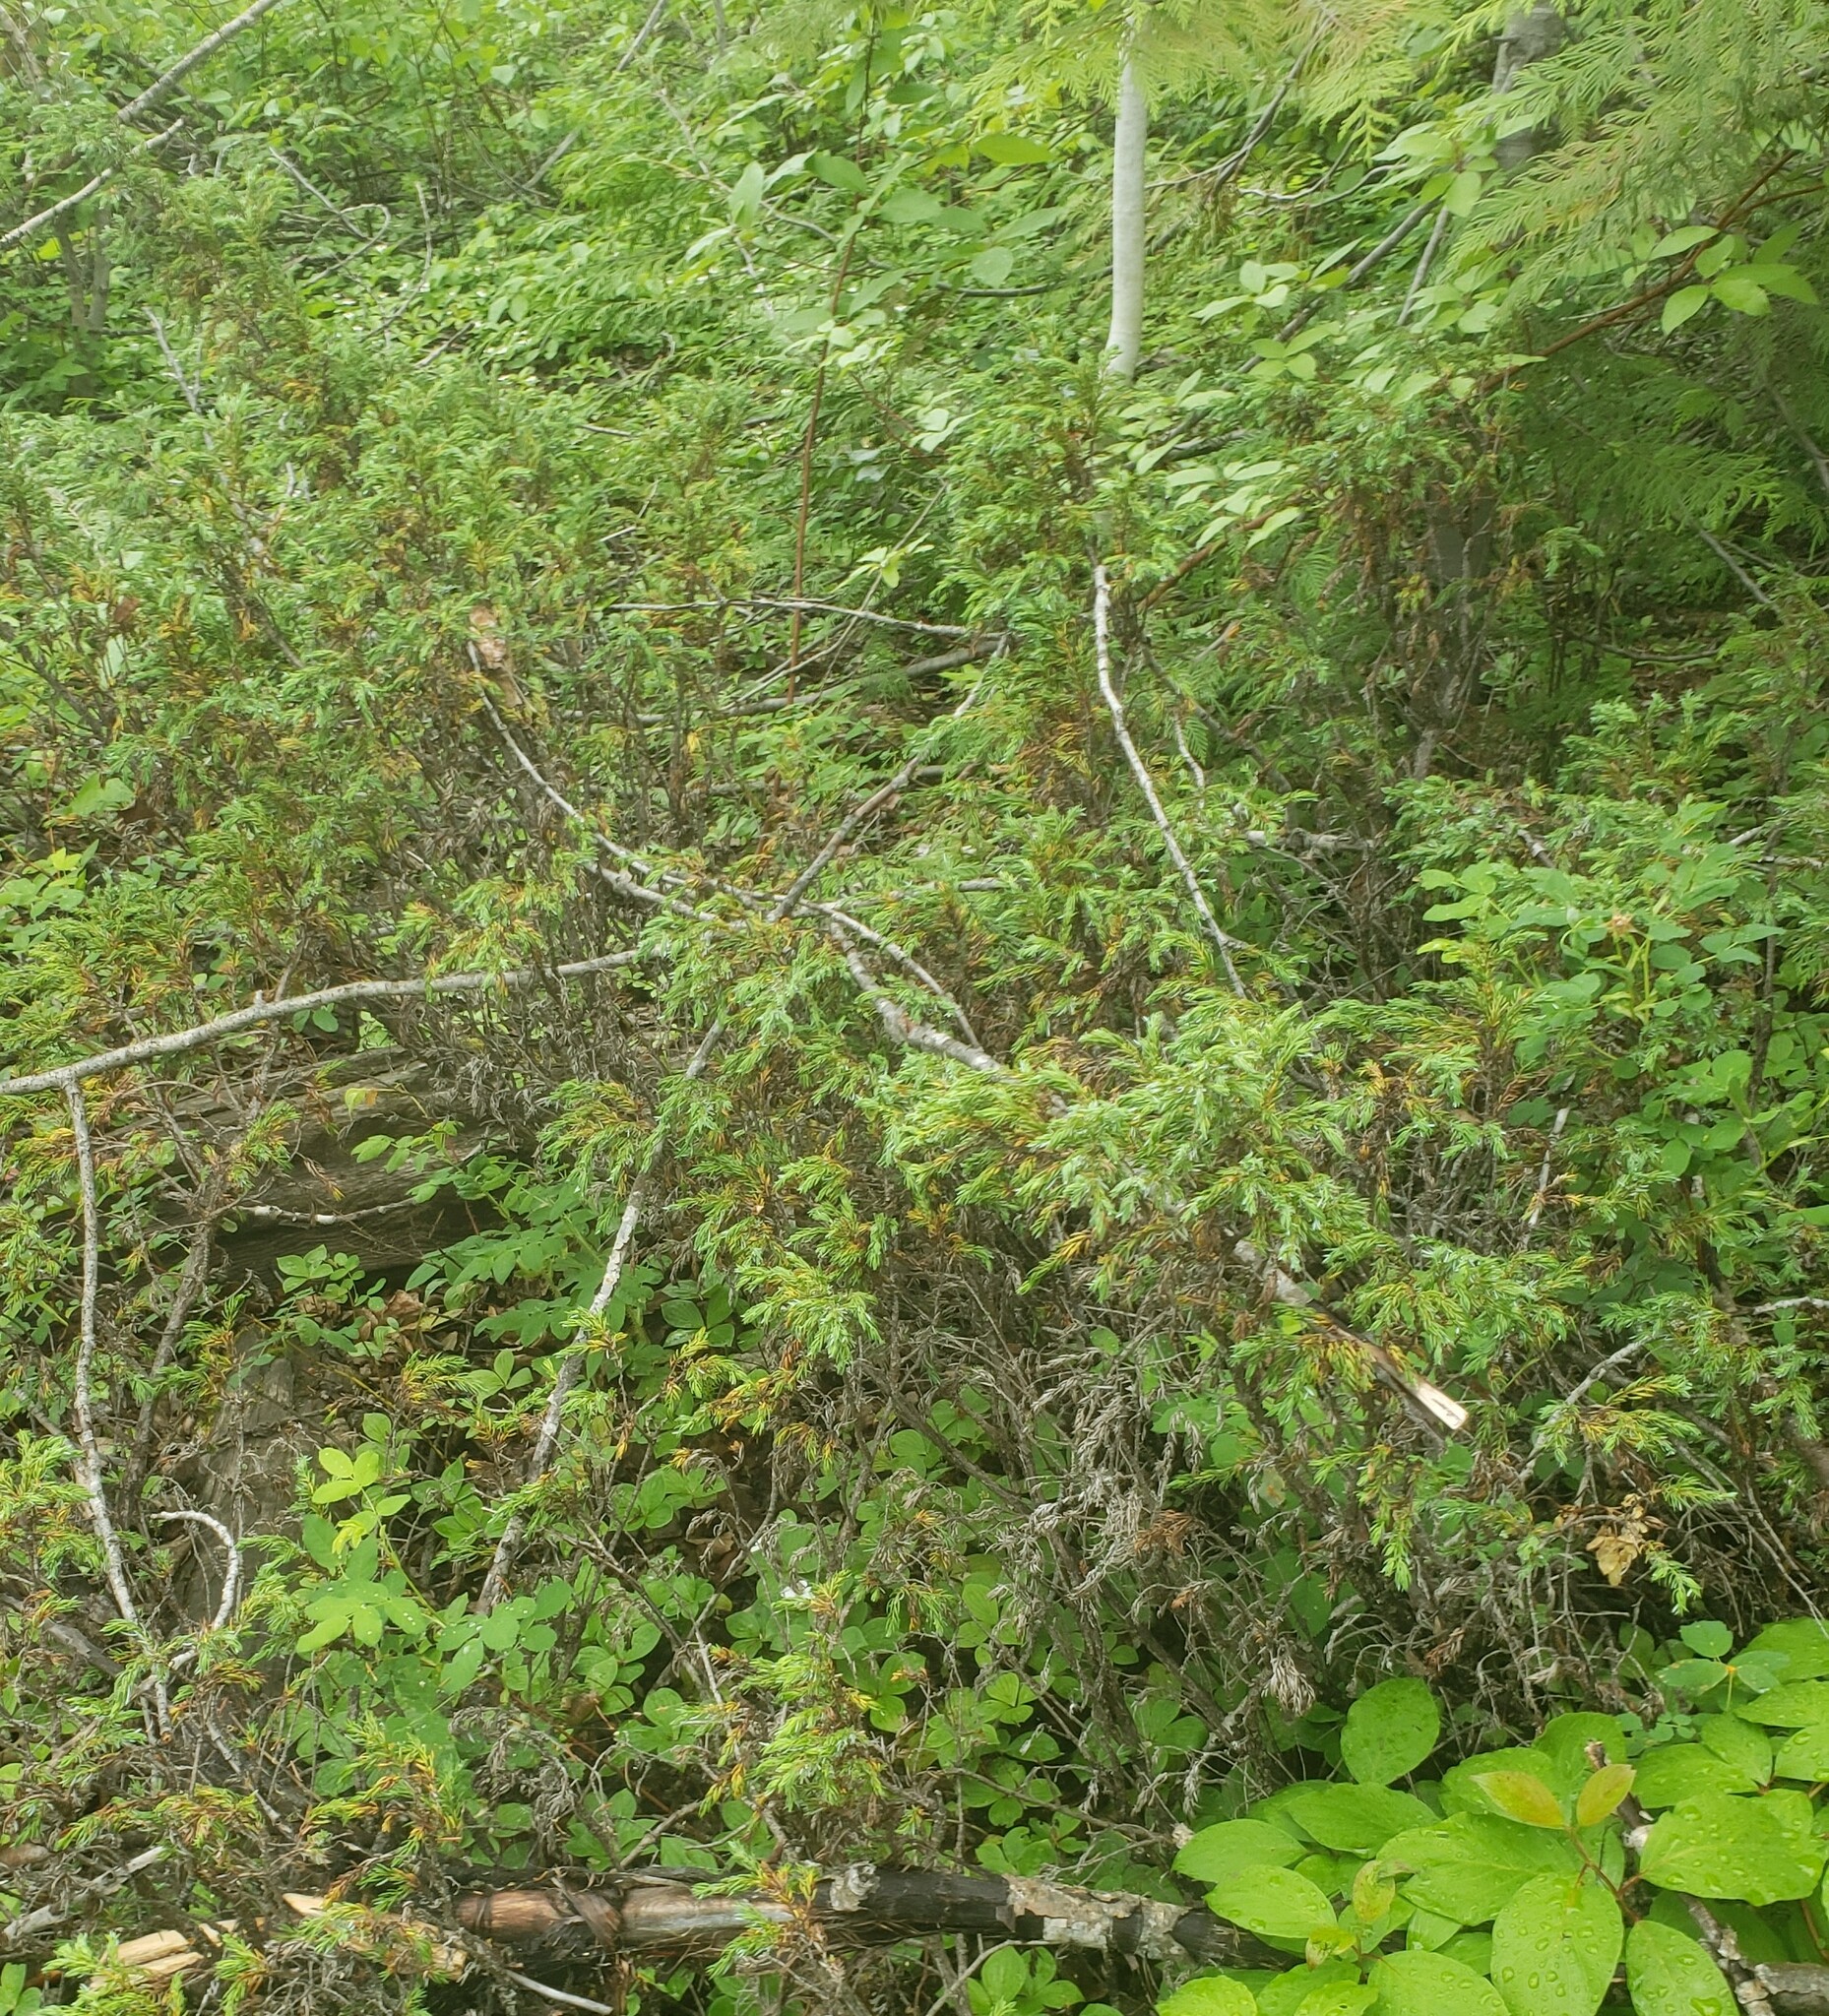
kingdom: Plantae
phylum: Tracheophyta
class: Pinopsida
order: Pinales
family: Cupressaceae
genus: Juniperus
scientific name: Juniperus communis
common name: Common juniper
